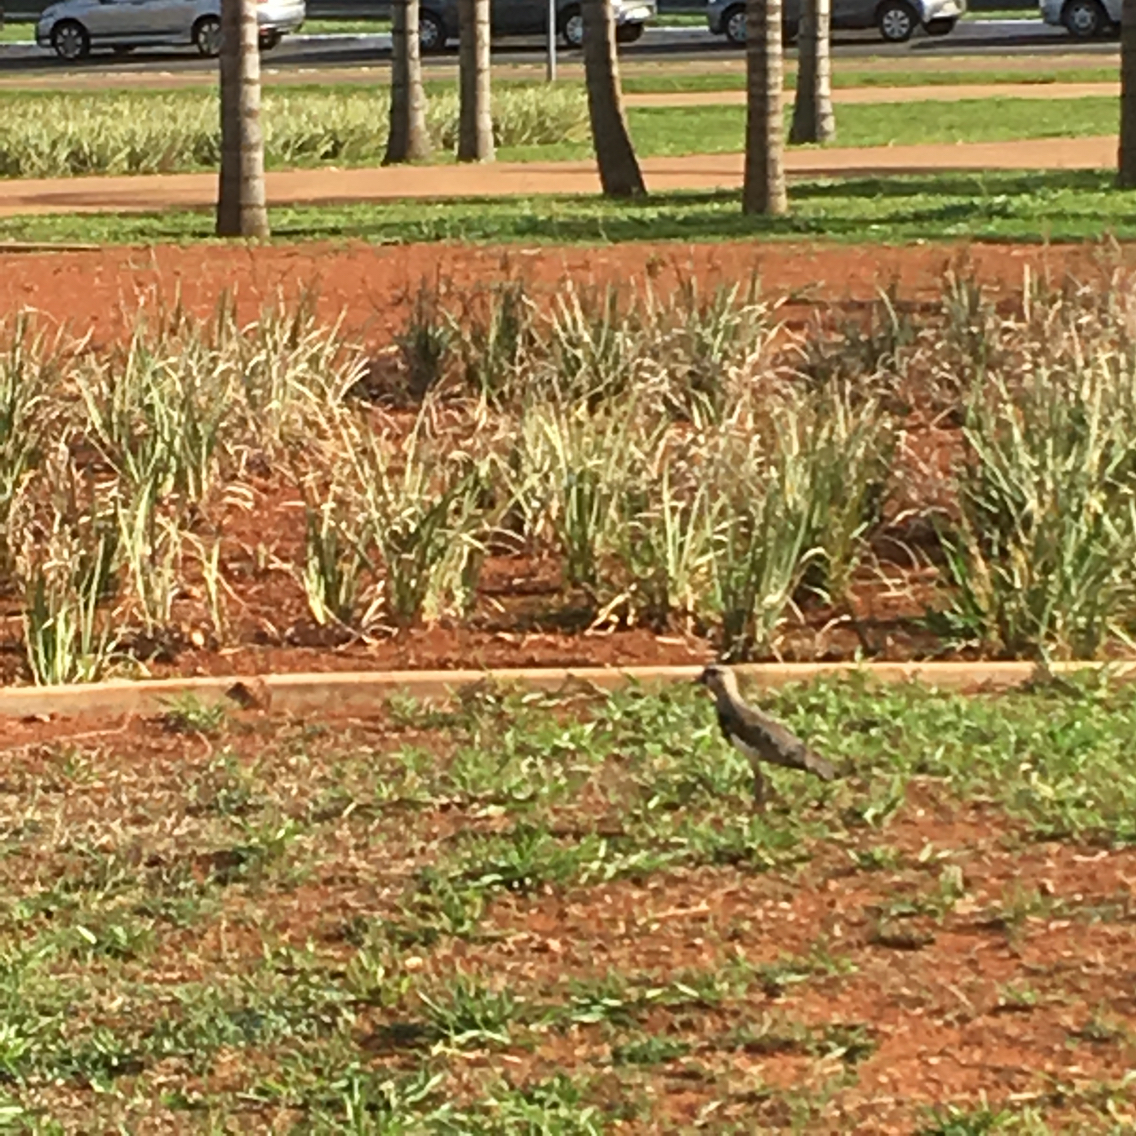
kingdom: Animalia
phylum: Chordata
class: Aves
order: Charadriiformes
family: Charadriidae
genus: Vanellus
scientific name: Vanellus chilensis
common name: Southern lapwing
